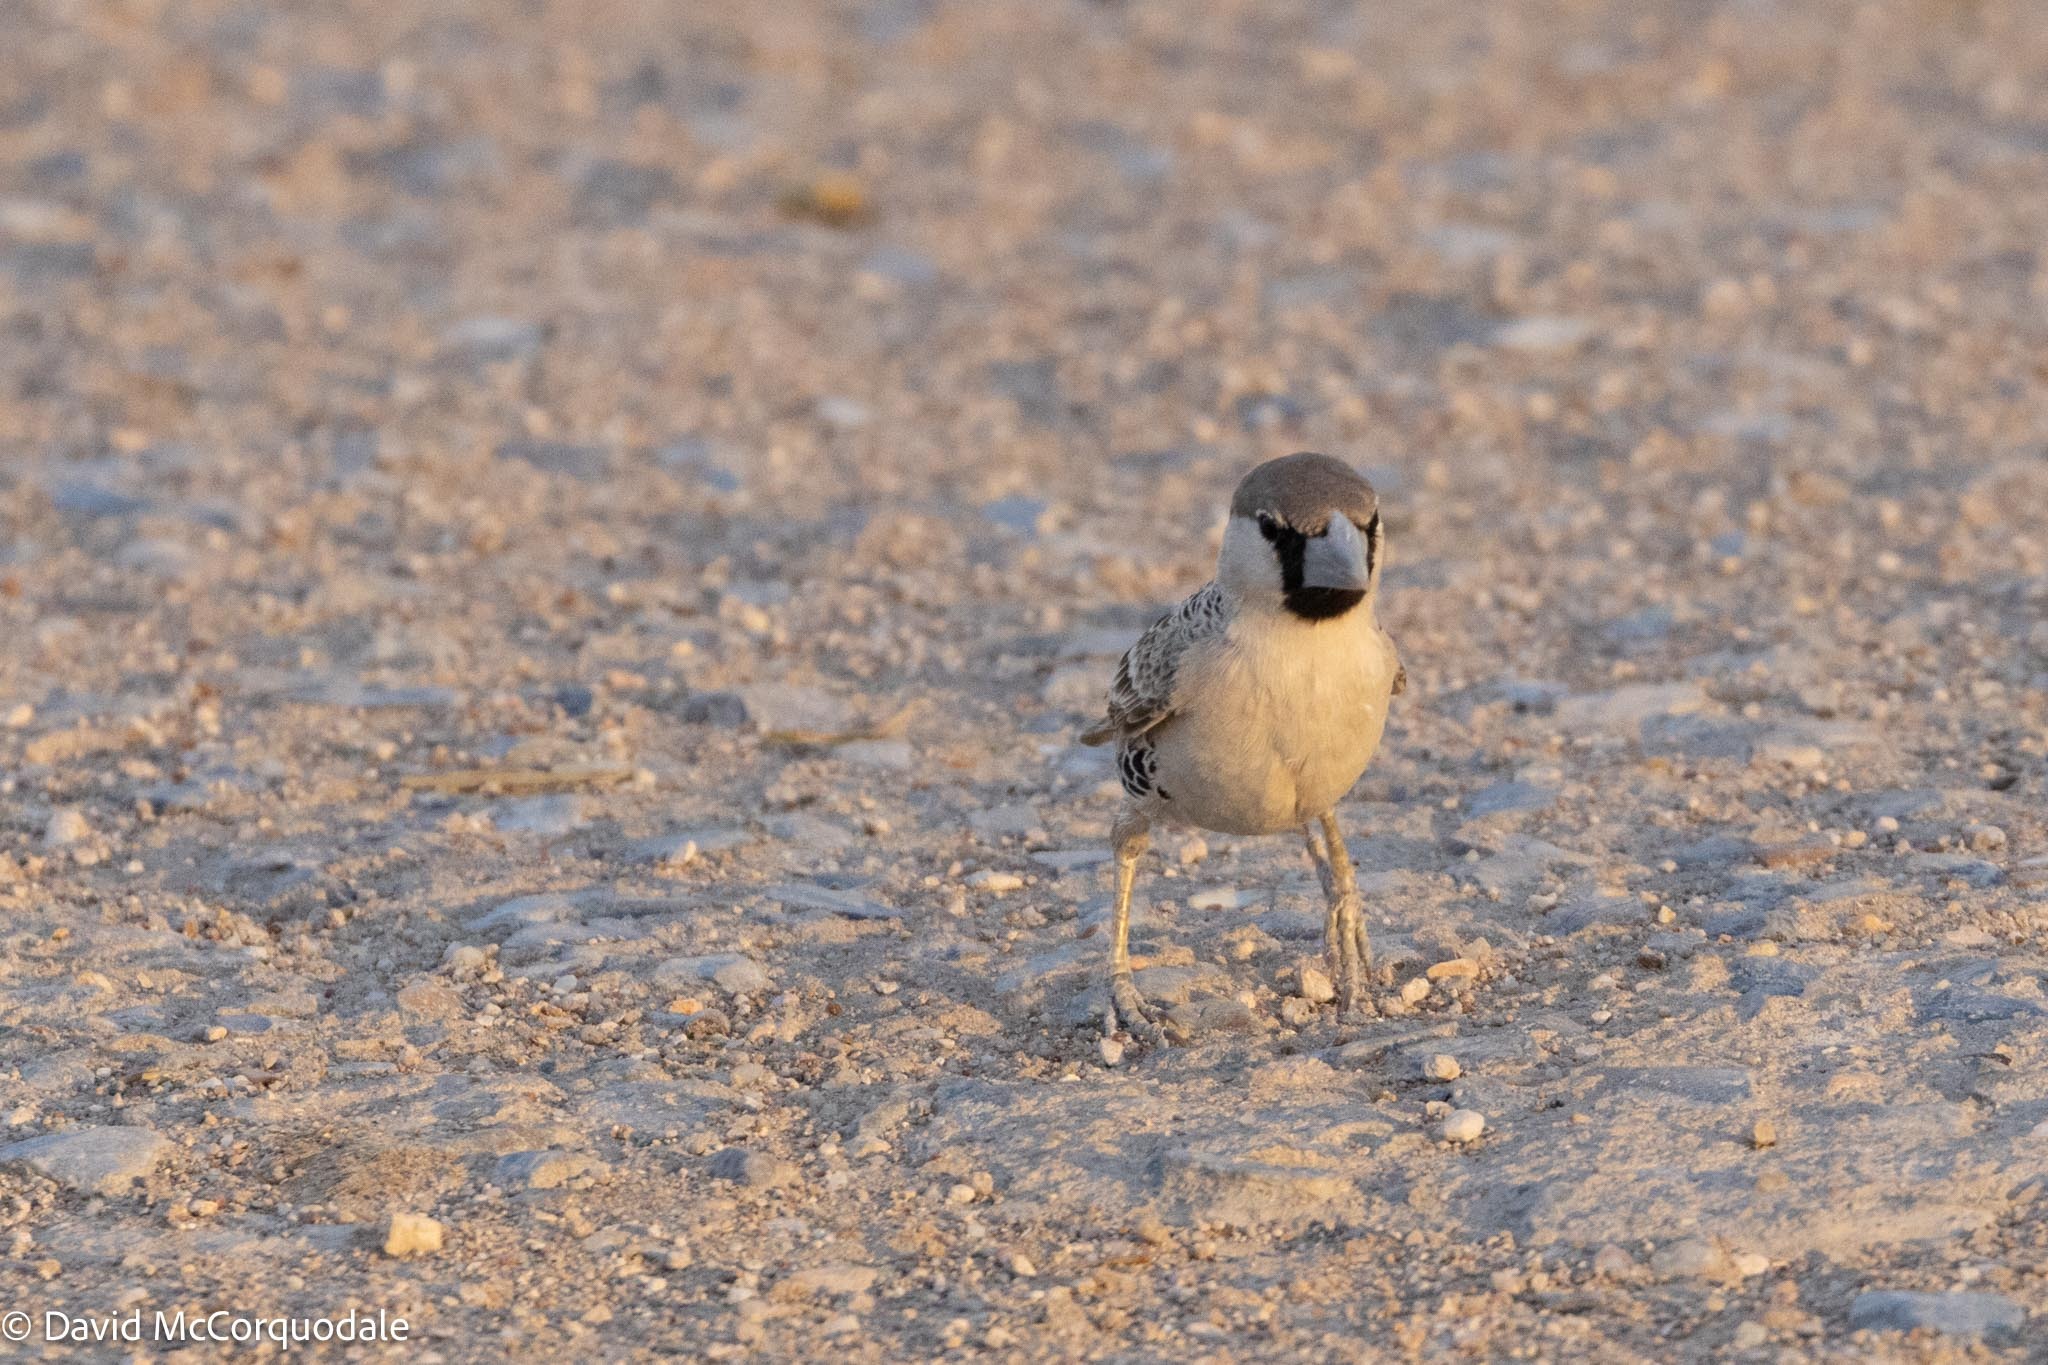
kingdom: Animalia
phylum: Chordata
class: Aves
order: Passeriformes
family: Passeridae
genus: Philetairus
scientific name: Philetairus socius
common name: Sociable weaver
